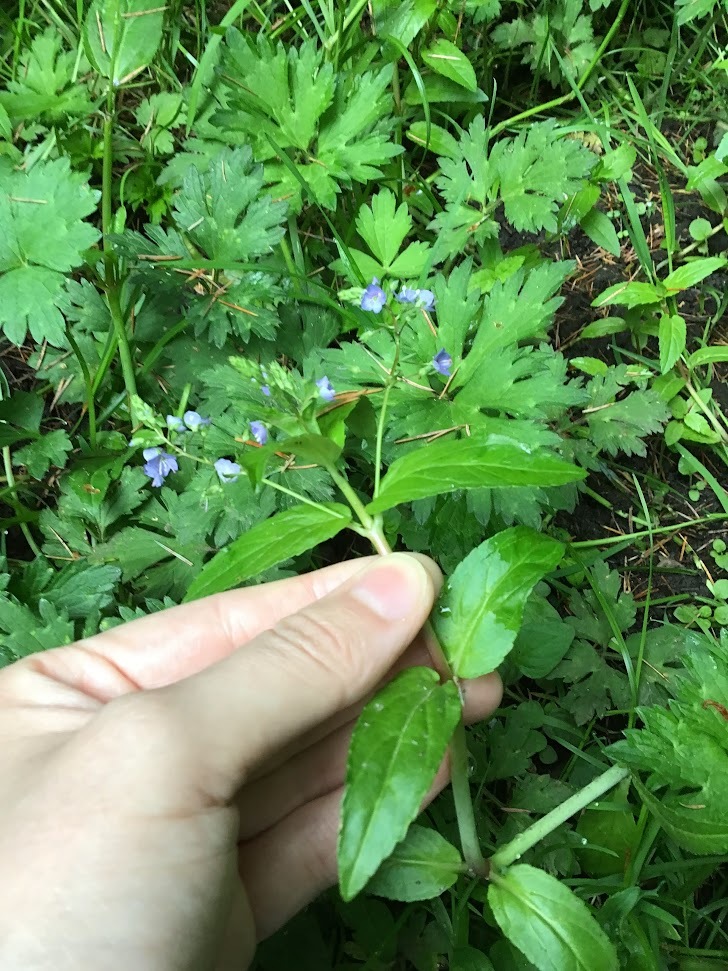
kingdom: Plantae
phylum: Tracheophyta
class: Magnoliopsida
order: Lamiales
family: Plantaginaceae
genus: Veronica
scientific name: Veronica americana
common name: American brooklime
